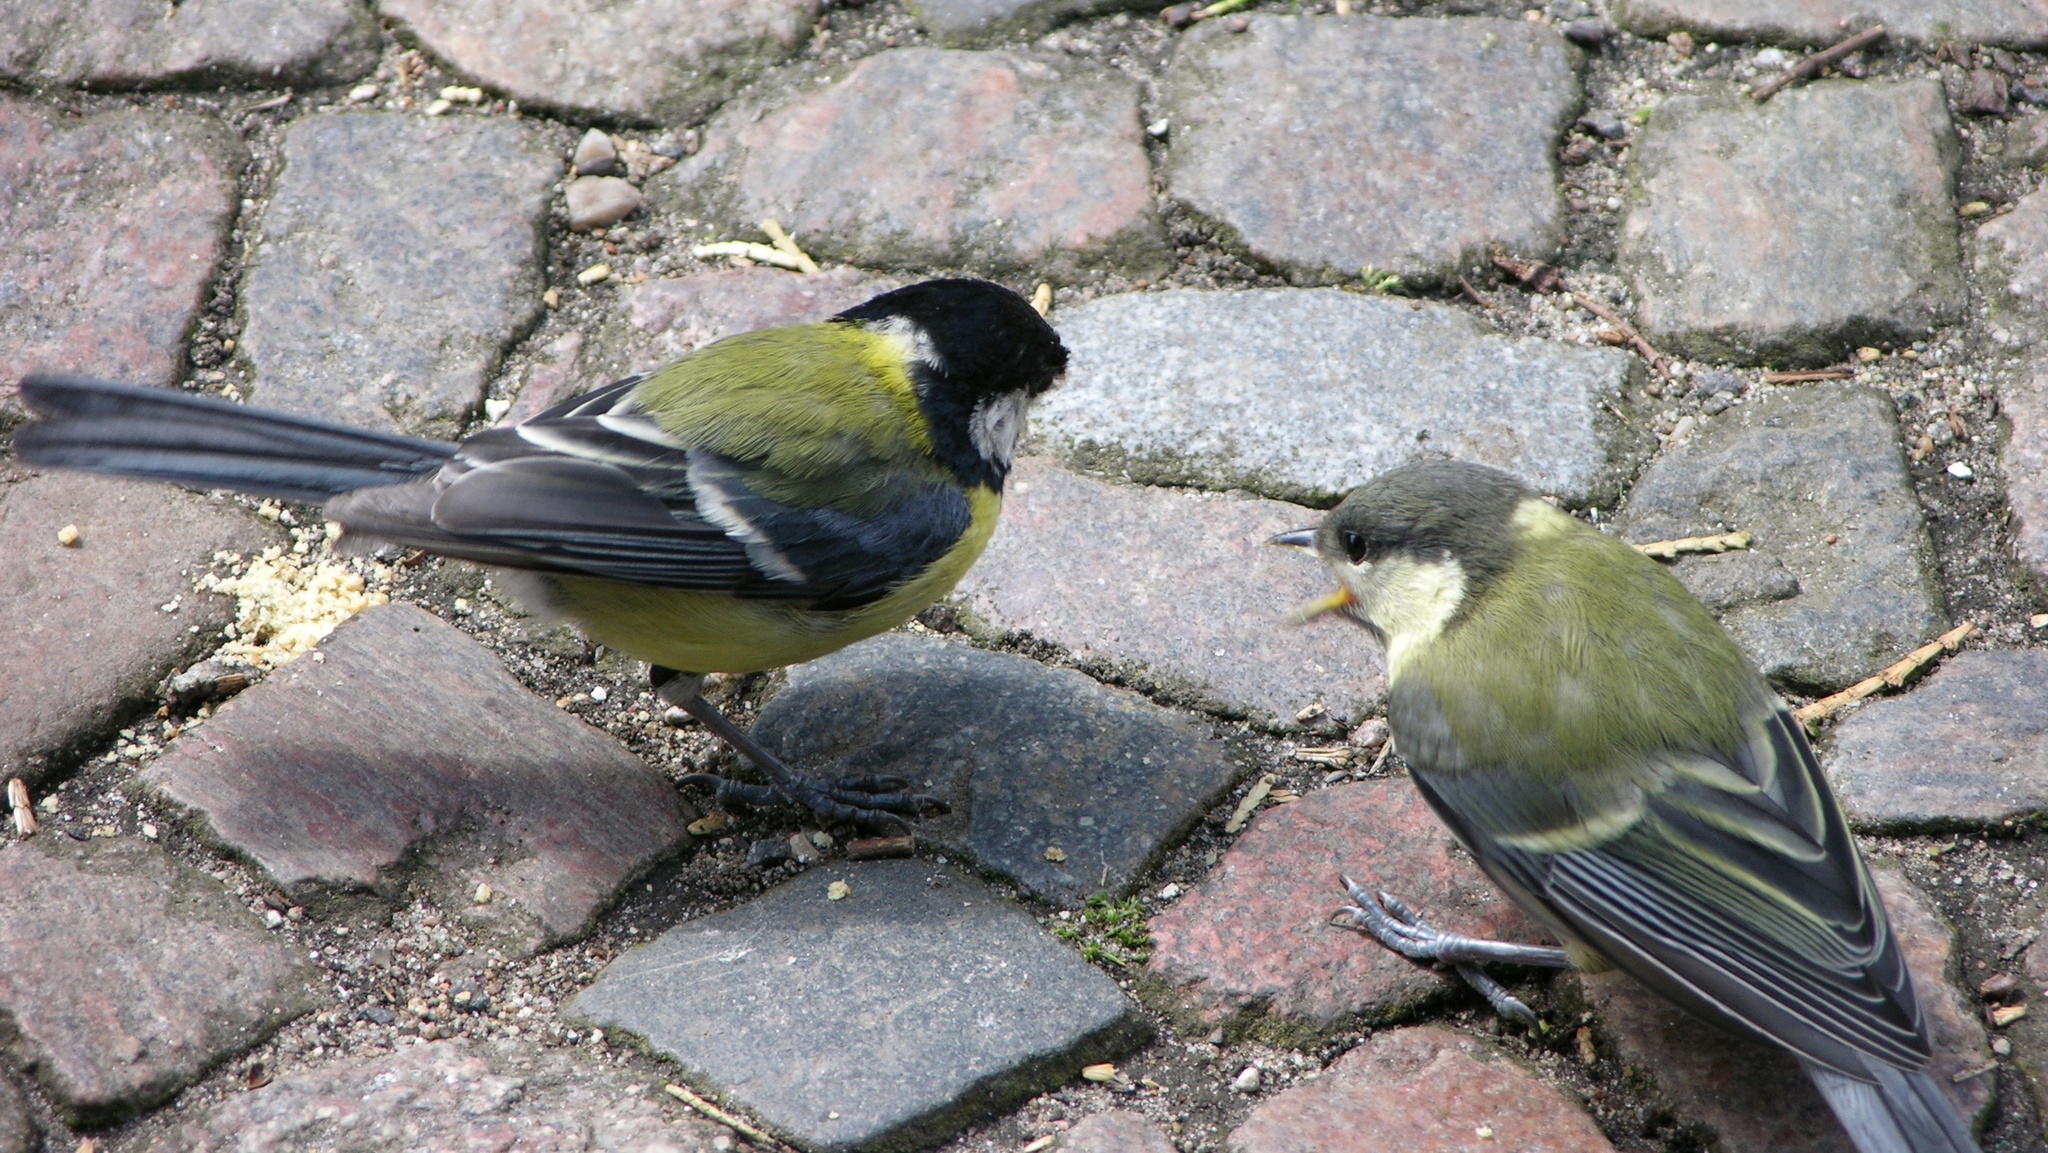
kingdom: Animalia
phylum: Chordata
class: Aves
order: Passeriformes
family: Paridae
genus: Parus
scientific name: Parus major
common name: Great tit
